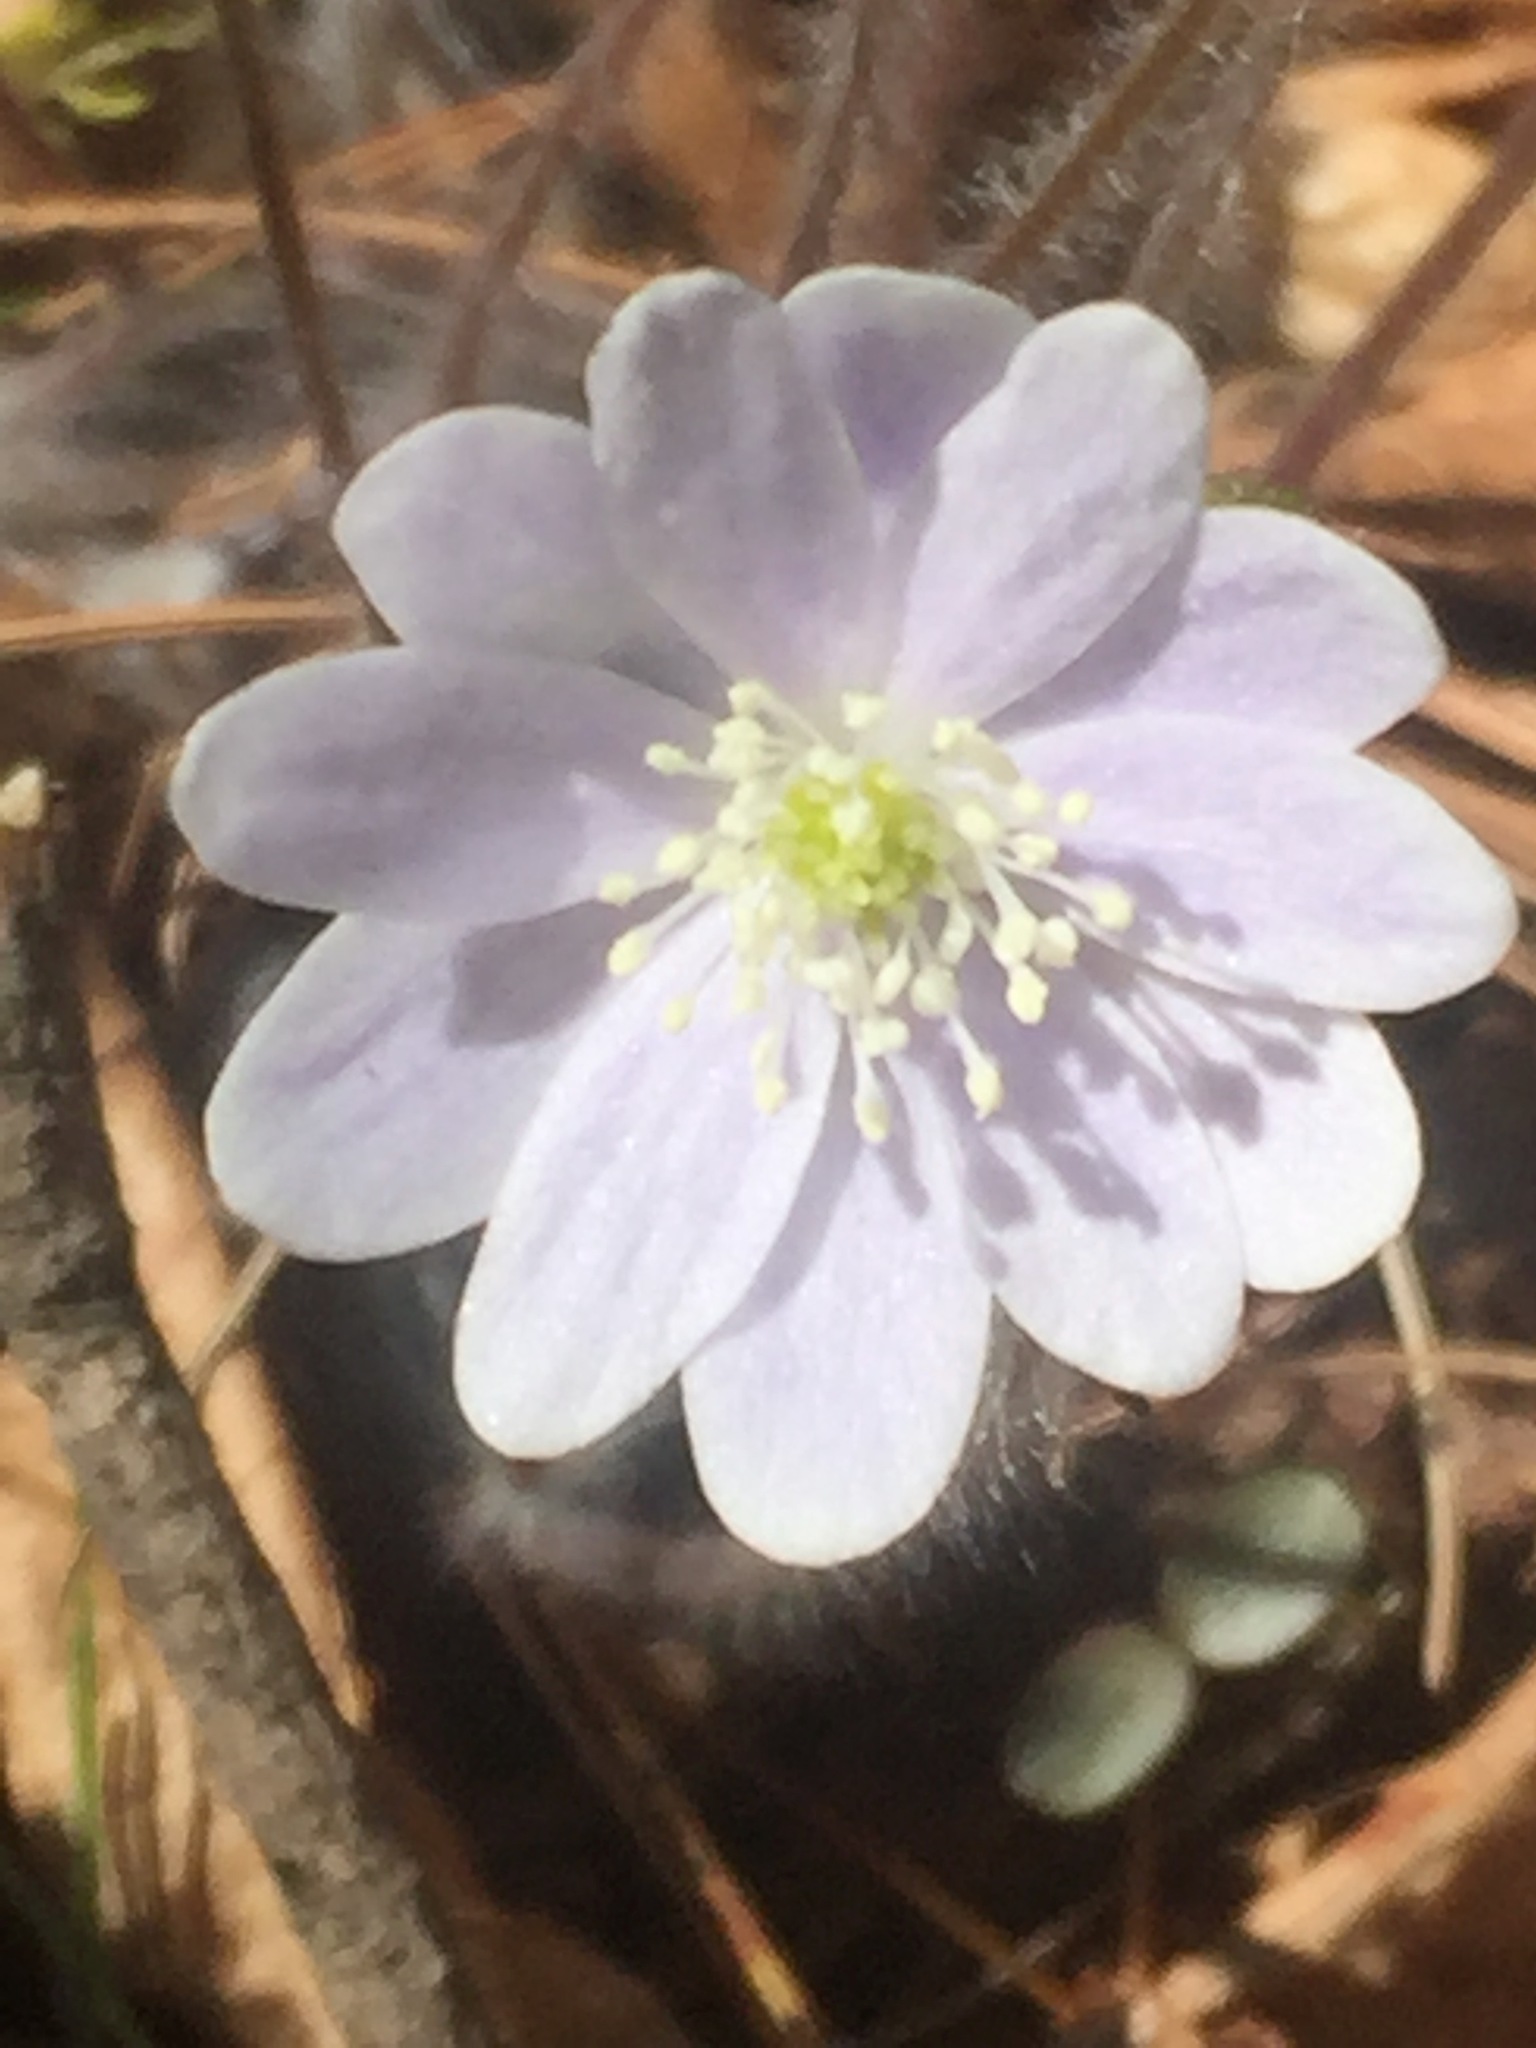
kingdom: Plantae
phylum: Tracheophyta
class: Magnoliopsida
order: Ranunculales
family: Ranunculaceae
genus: Hepatica
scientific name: Hepatica acutiloba
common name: Sharp-lobed hepatica
